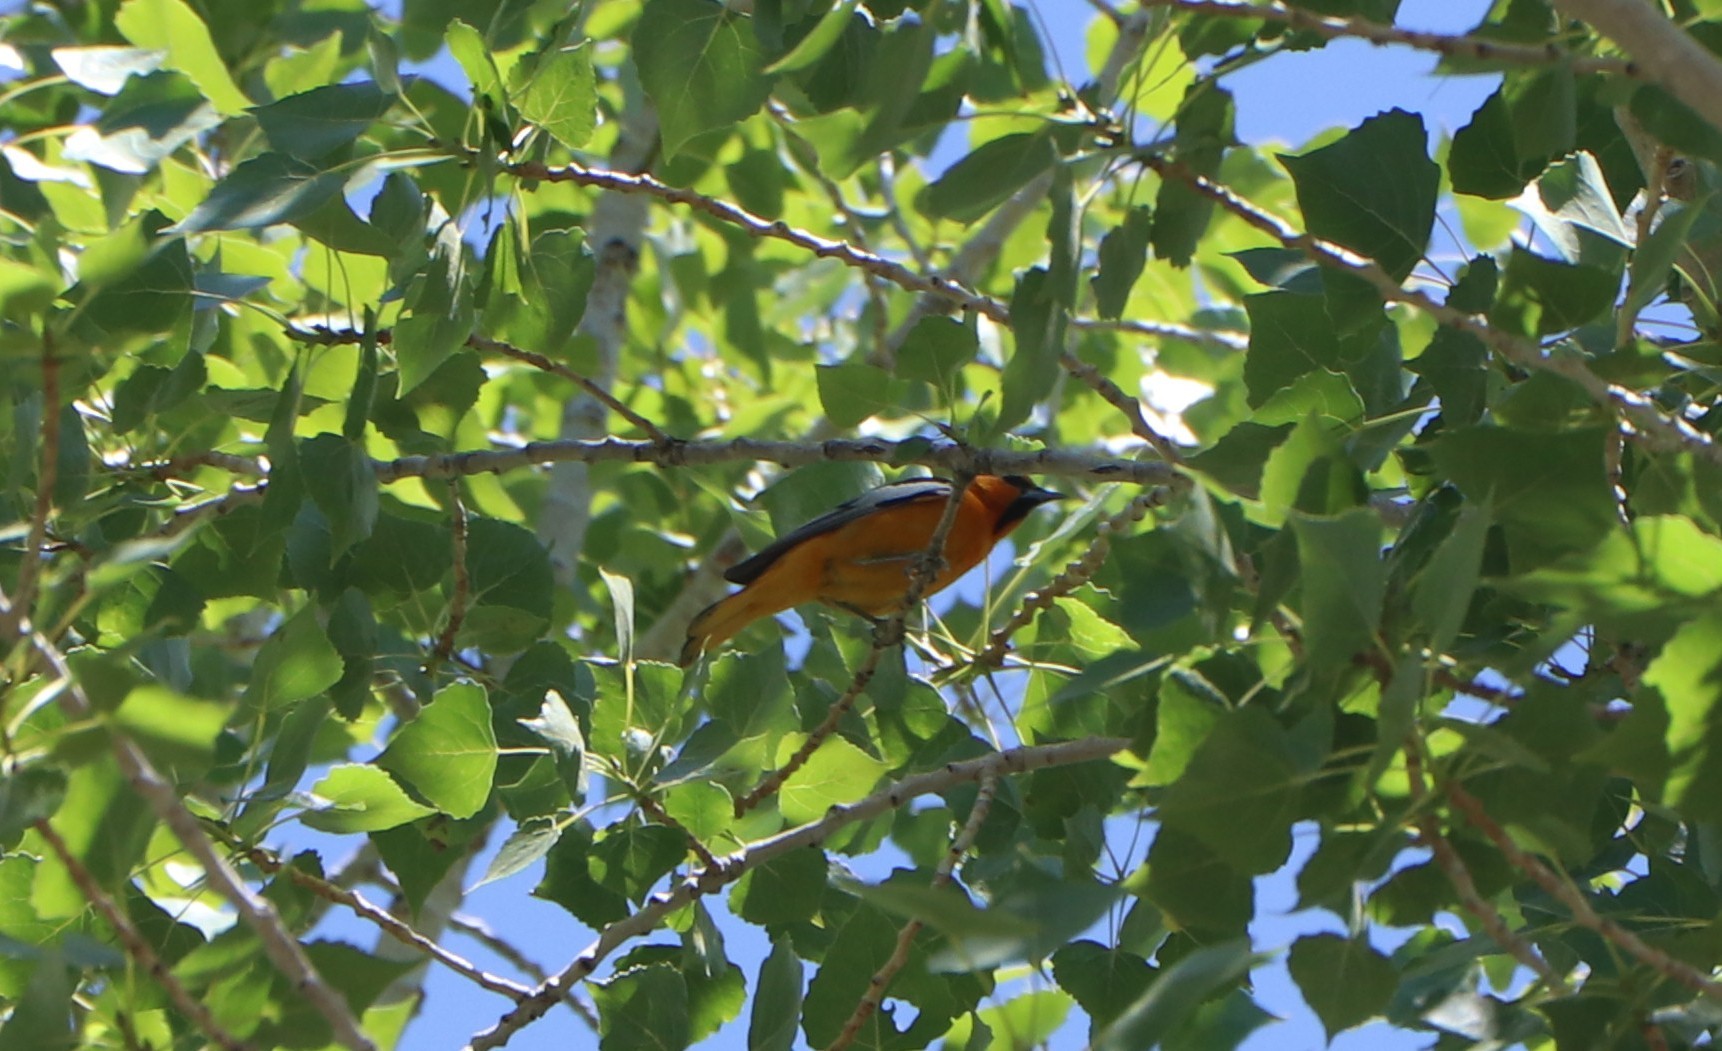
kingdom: Animalia
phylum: Chordata
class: Aves
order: Passeriformes
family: Icteridae
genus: Icterus
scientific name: Icterus bullockii
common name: Bullock's oriole
